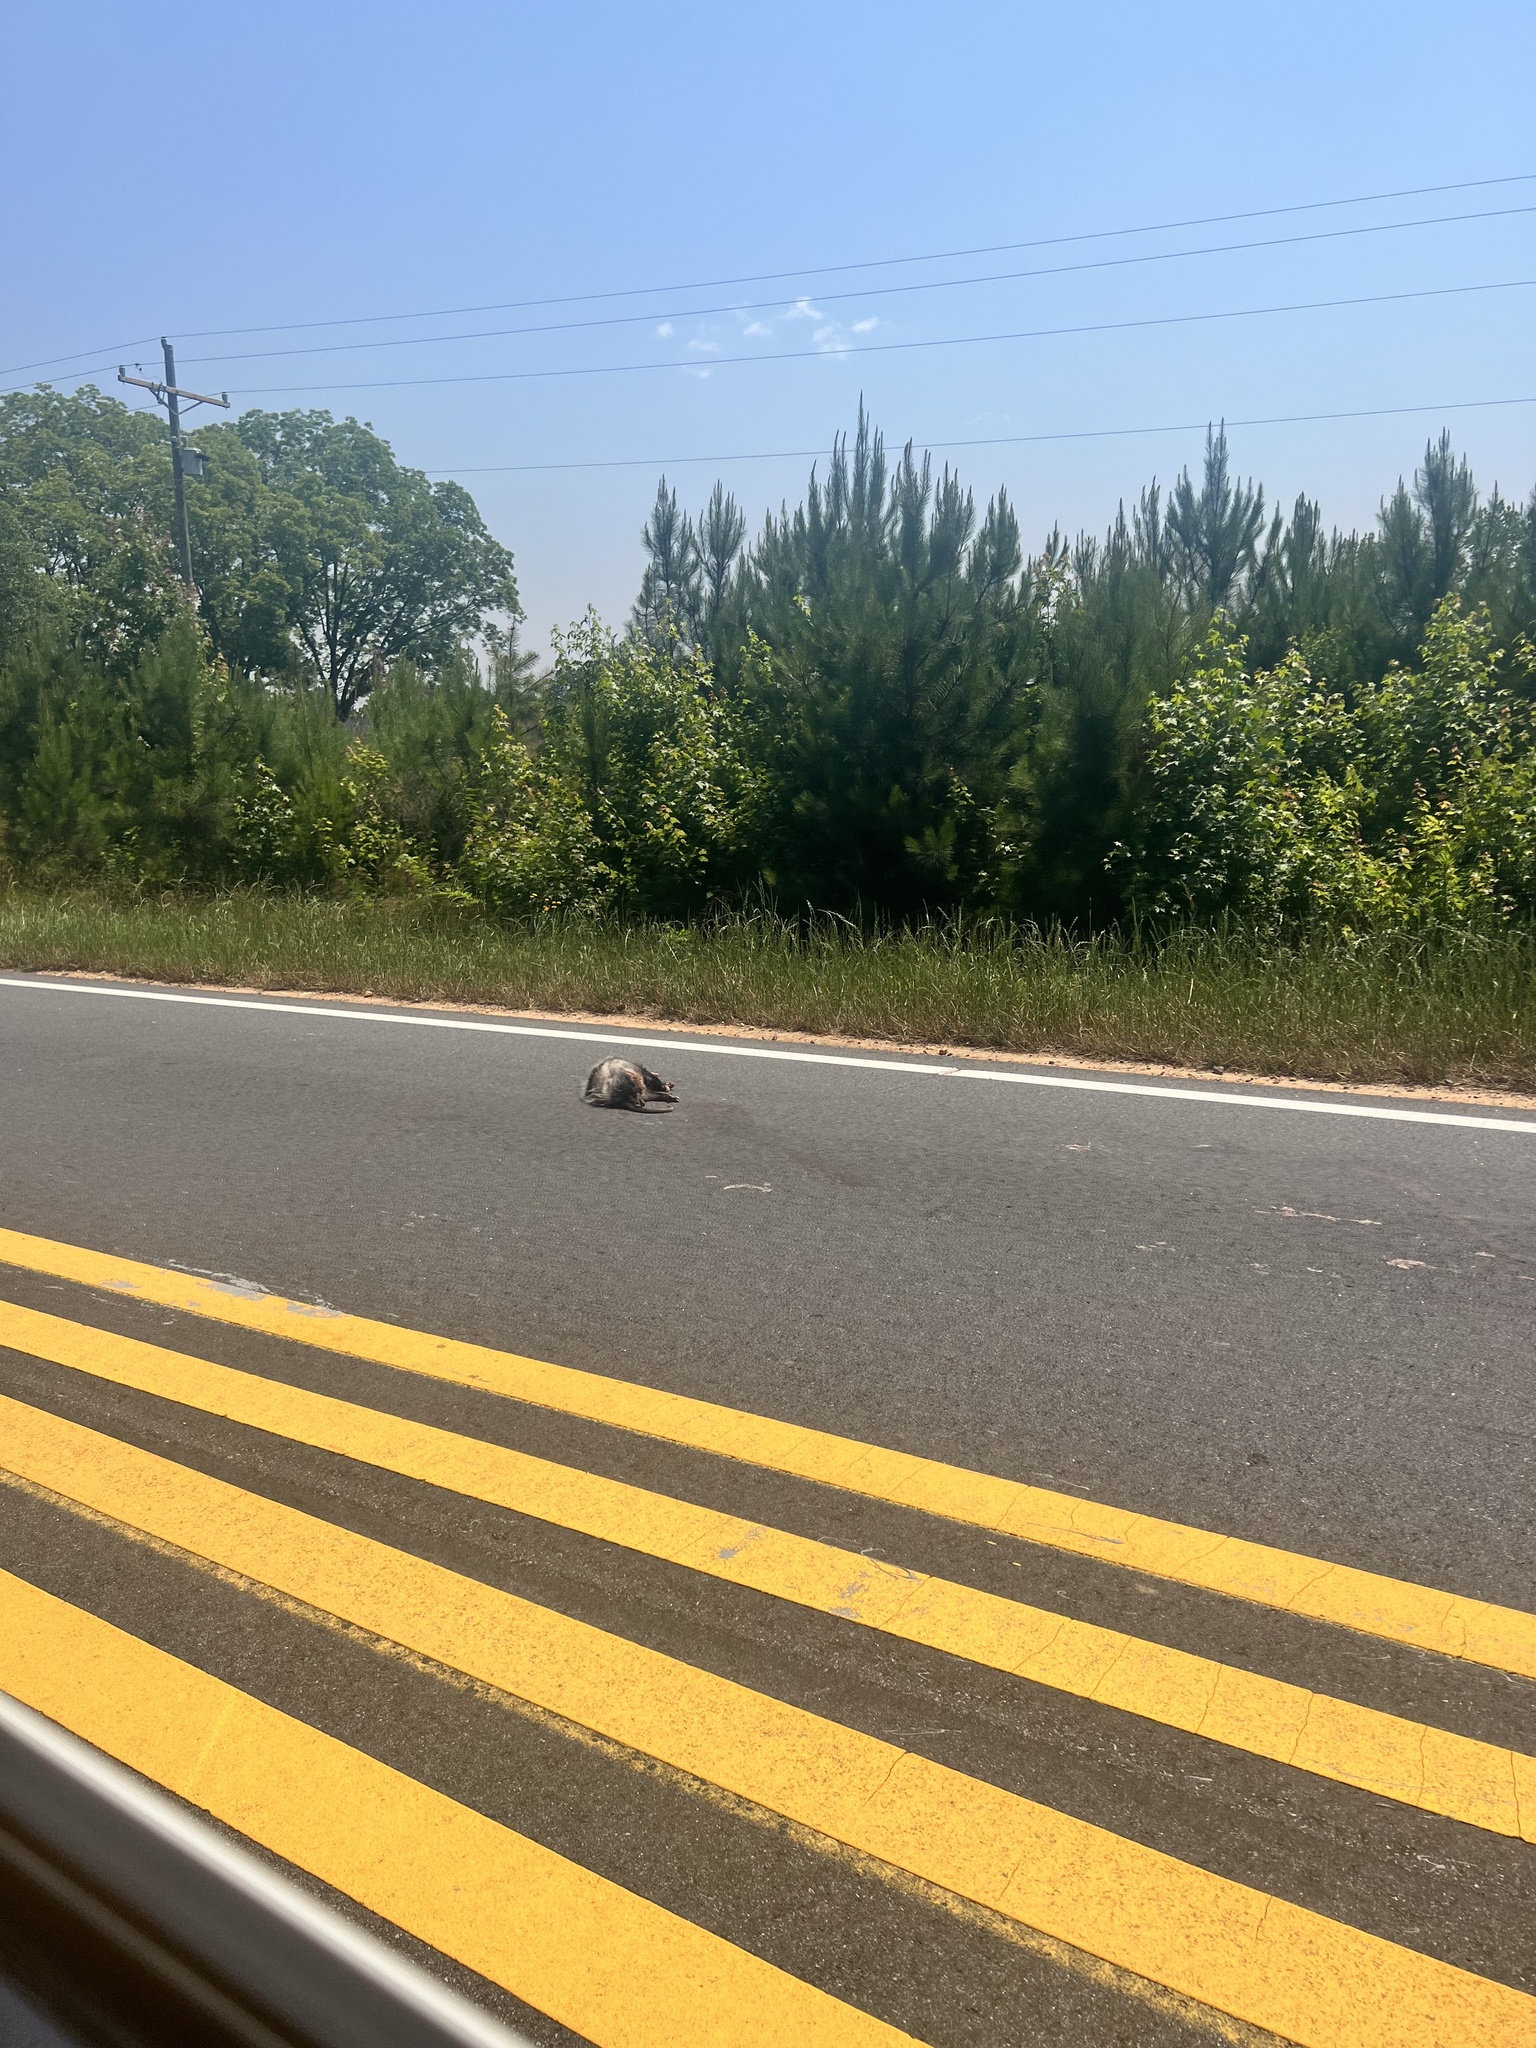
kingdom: Animalia
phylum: Chordata
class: Mammalia
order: Didelphimorphia
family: Didelphidae
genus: Didelphis
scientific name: Didelphis virginiana
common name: Virginia opossum
